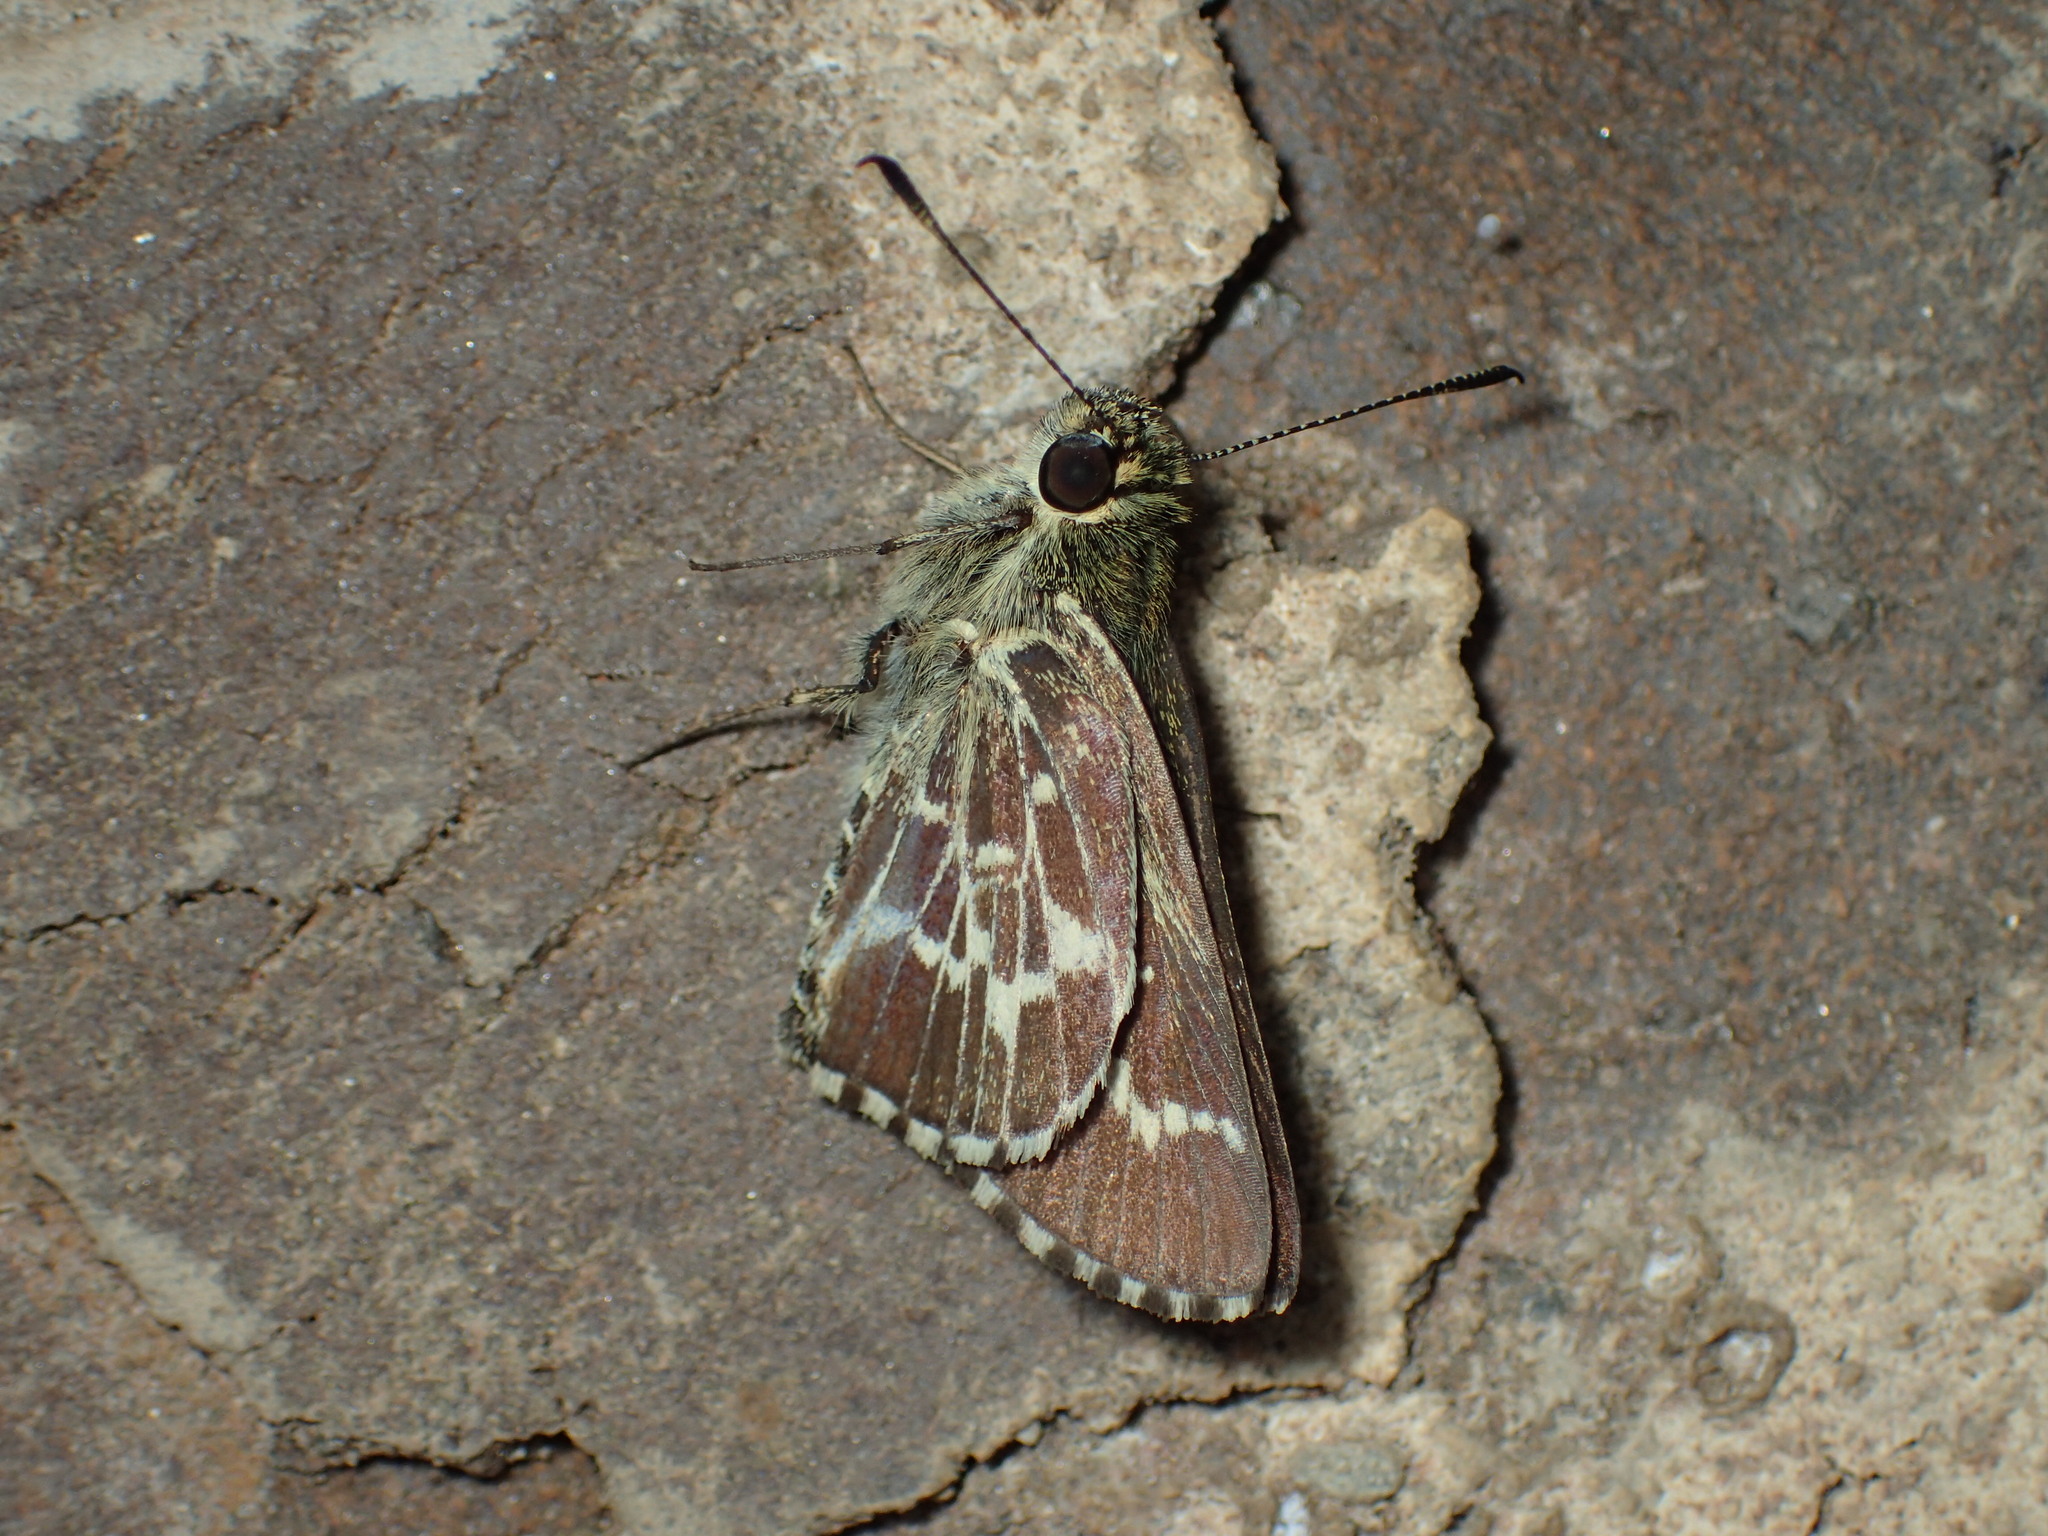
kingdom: Animalia
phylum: Arthropoda
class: Insecta
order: Lepidoptera
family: Hesperiidae
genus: Mastor
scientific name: Mastor aesculapius
